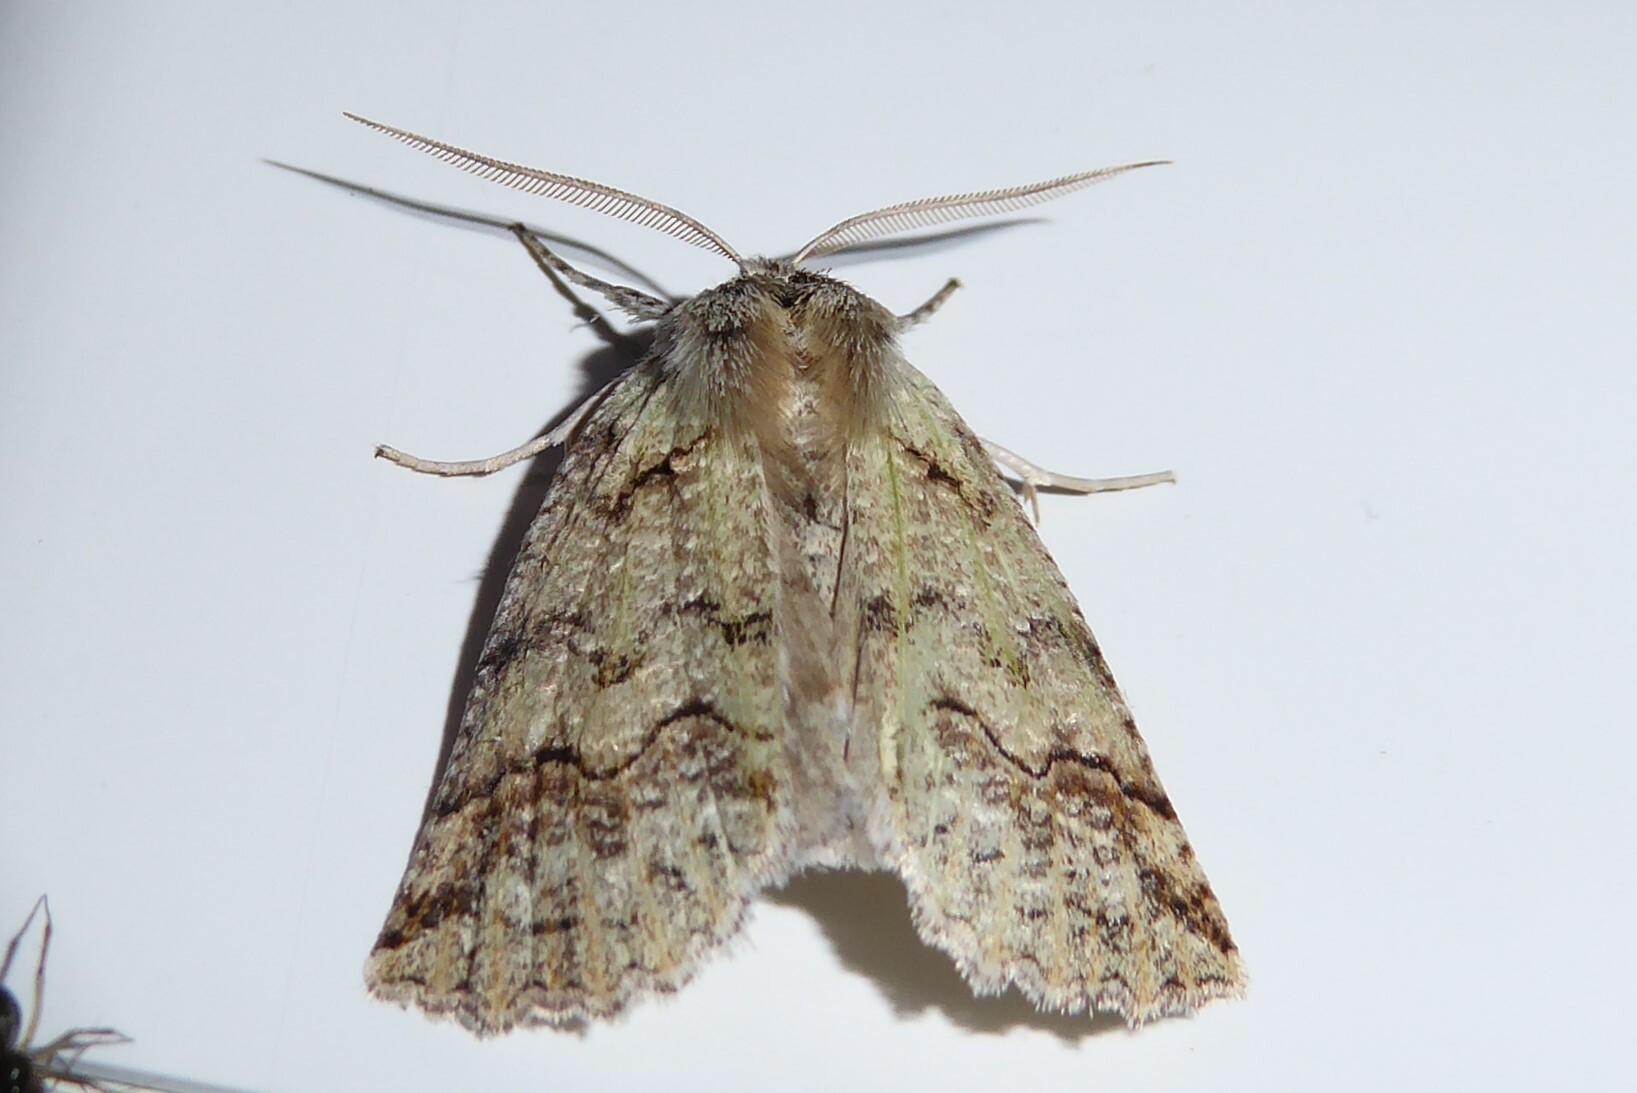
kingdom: Animalia
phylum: Arthropoda
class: Insecta
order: Lepidoptera
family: Geometridae
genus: Declana
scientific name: Declana floccosa
